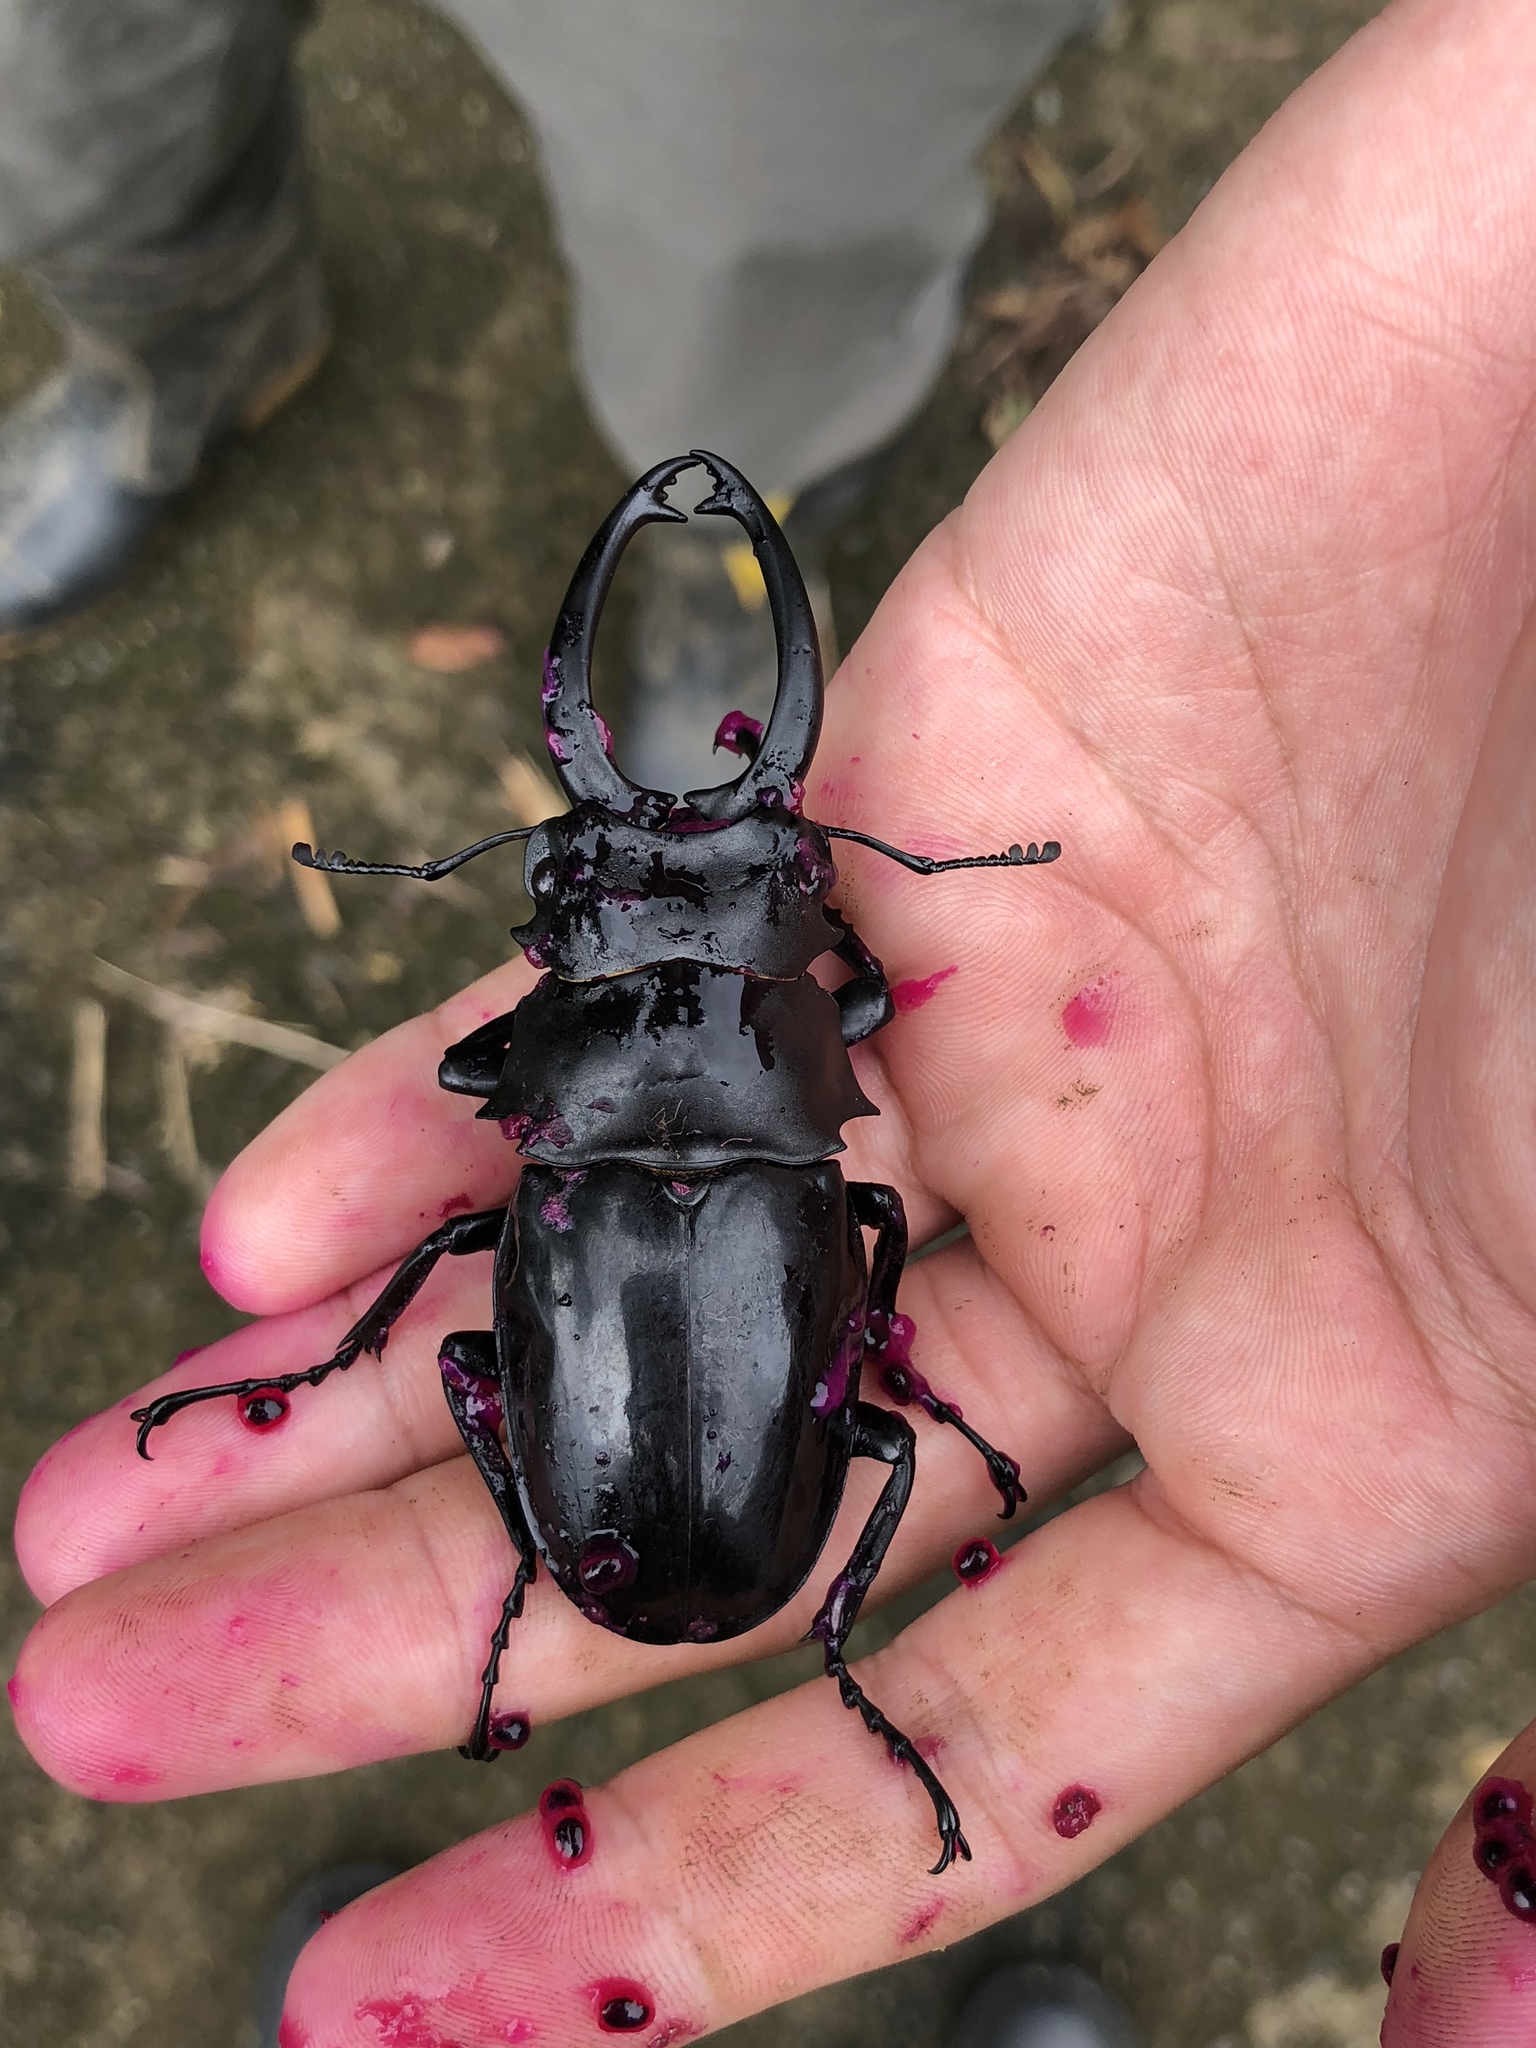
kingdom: Animalia
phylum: Arthropoda
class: Insecta
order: Coleoptera
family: Lucanidae
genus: Odontolabis
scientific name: Odontolabis siva
